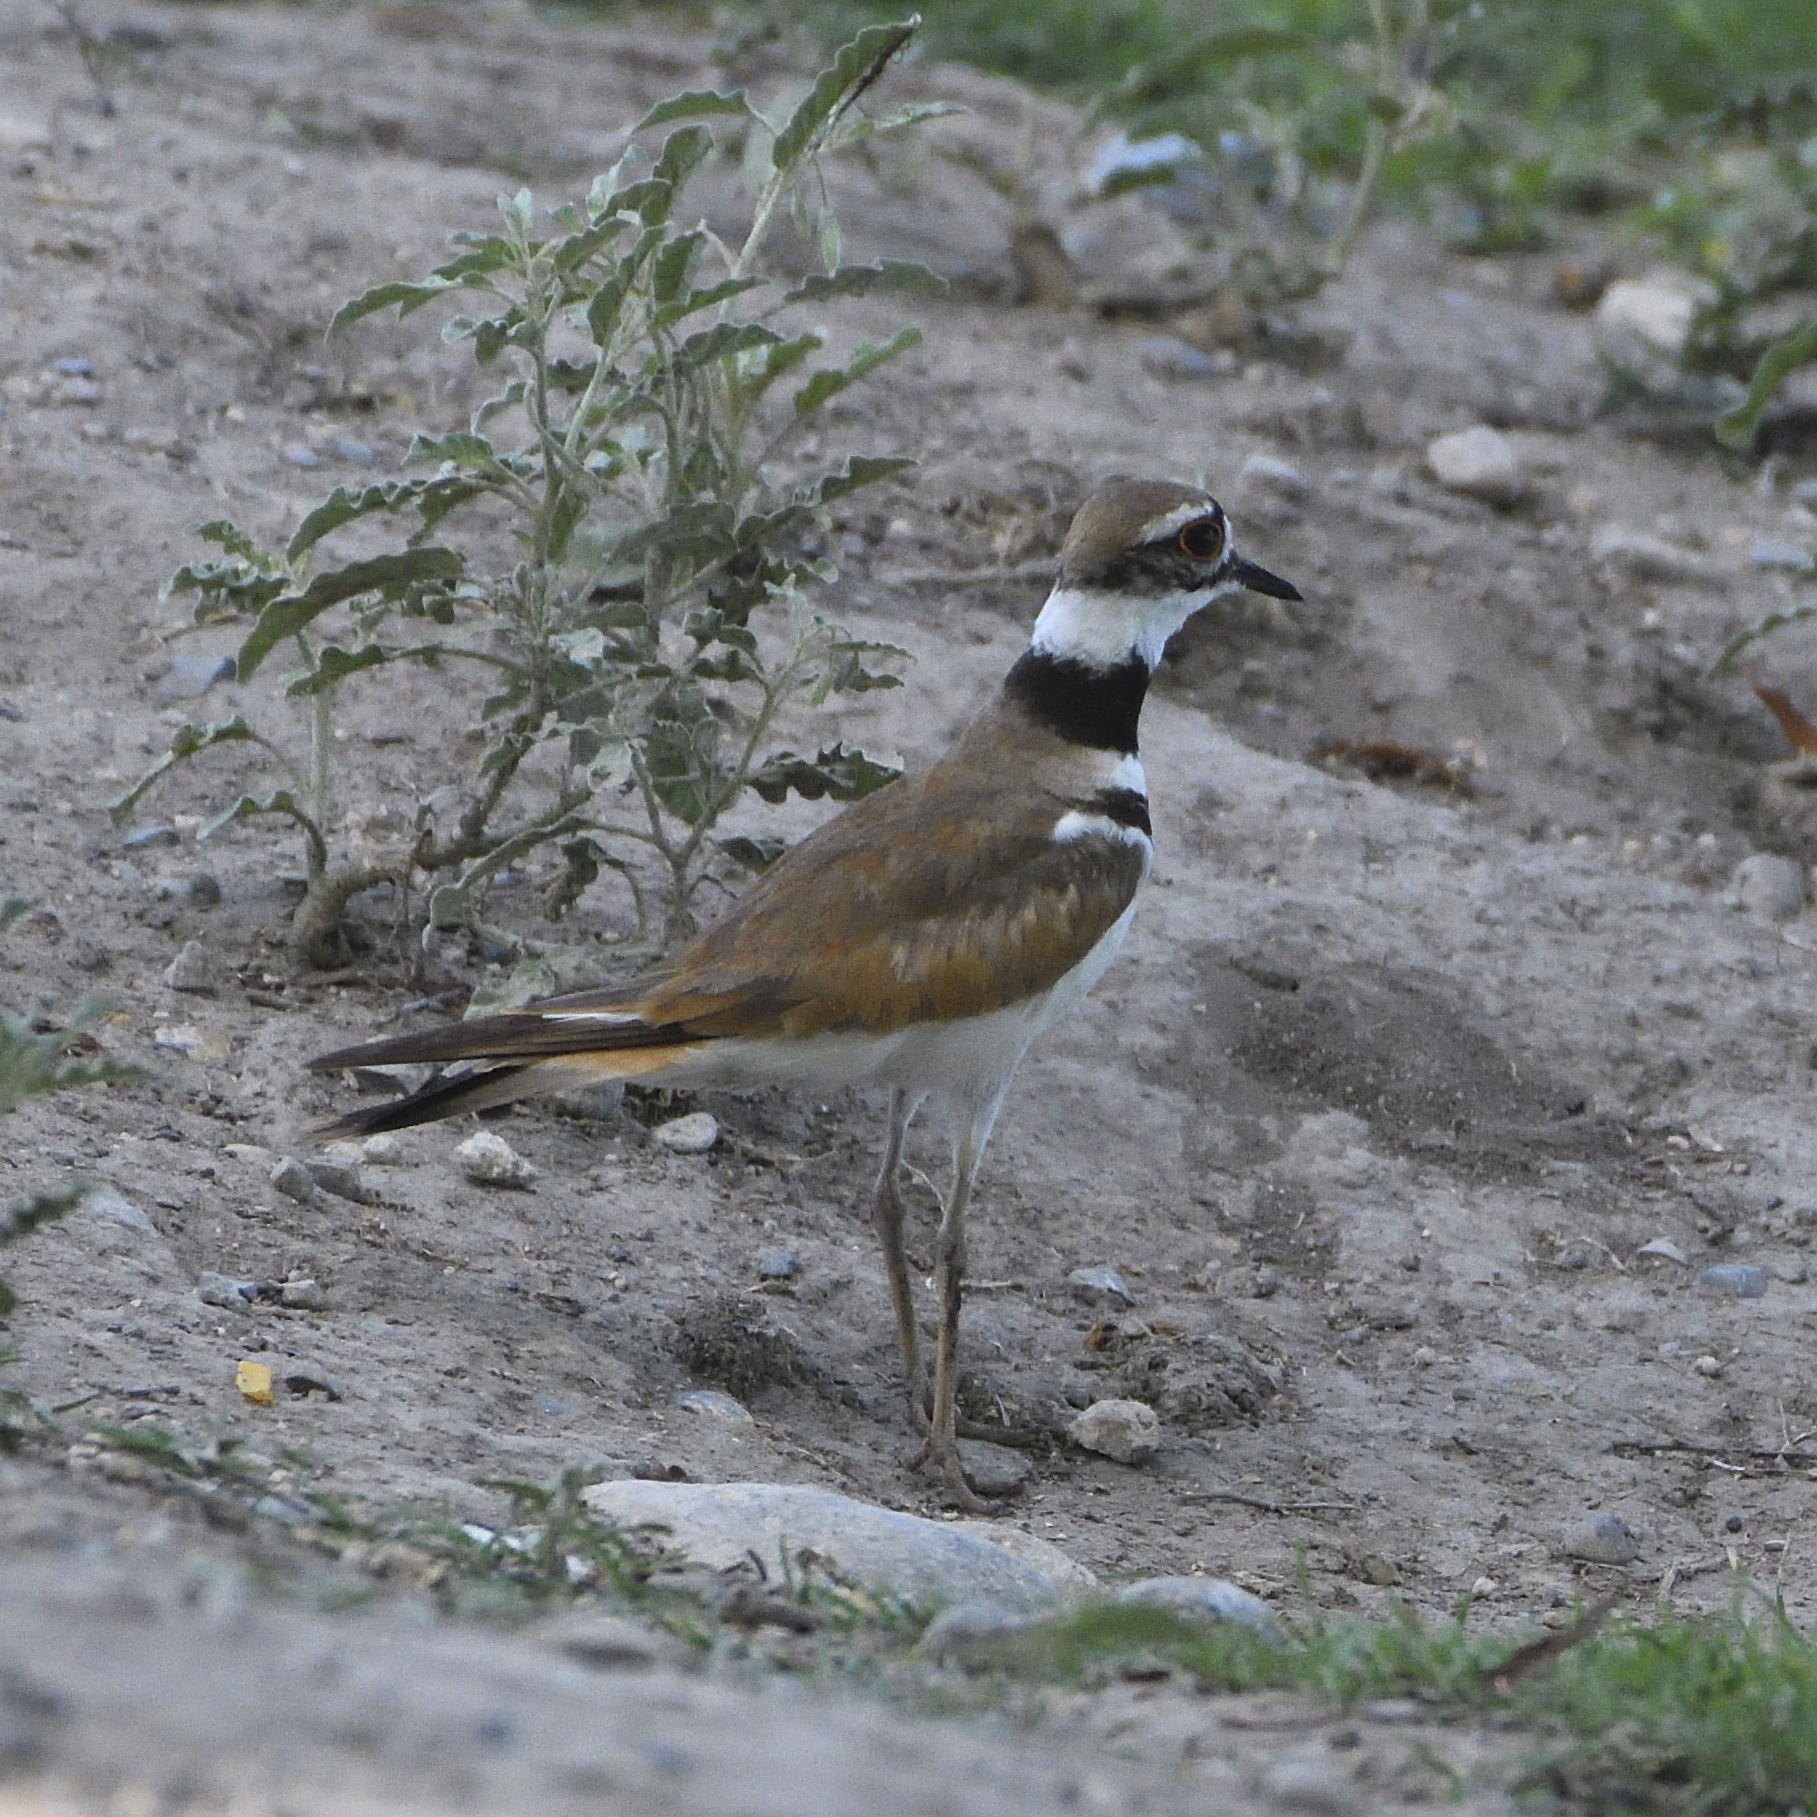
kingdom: Animalia
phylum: Chordata
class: Aves
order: Charadriiformes
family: Charadriidae
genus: Charadrius
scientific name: Charadrius vociferus
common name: Killdeer
